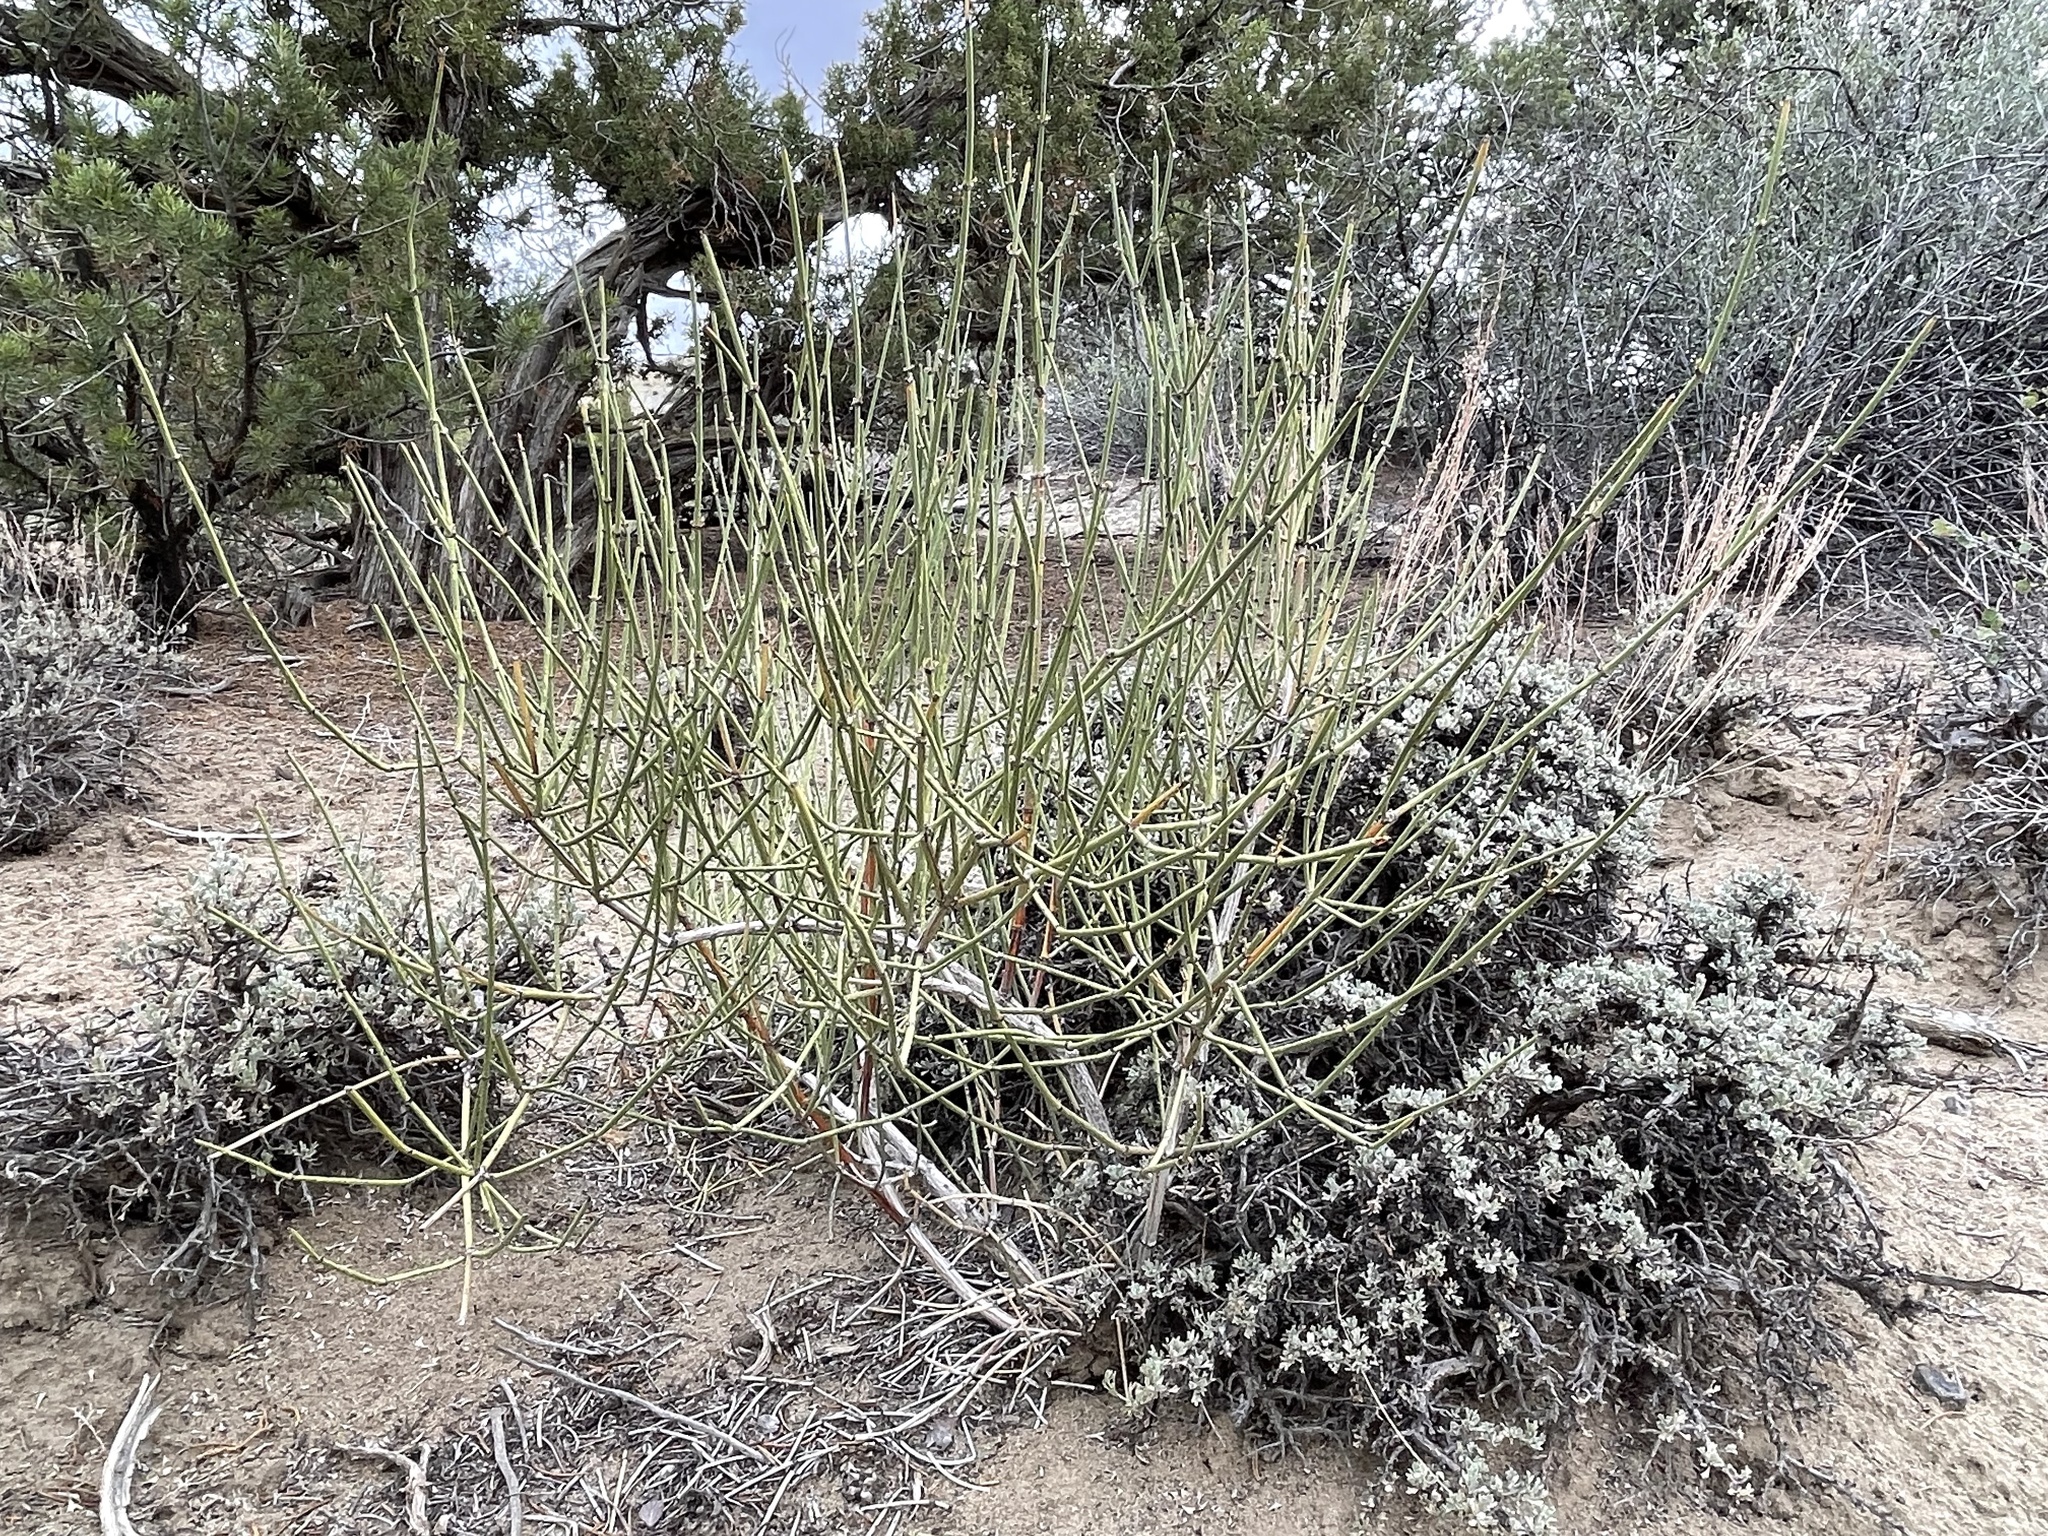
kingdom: Plantae
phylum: Tracheophyta
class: Gnetopsida
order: Ephedrales
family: Ephedraceae
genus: Ephedra
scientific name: Ephedra viridis
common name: Green ephedra
